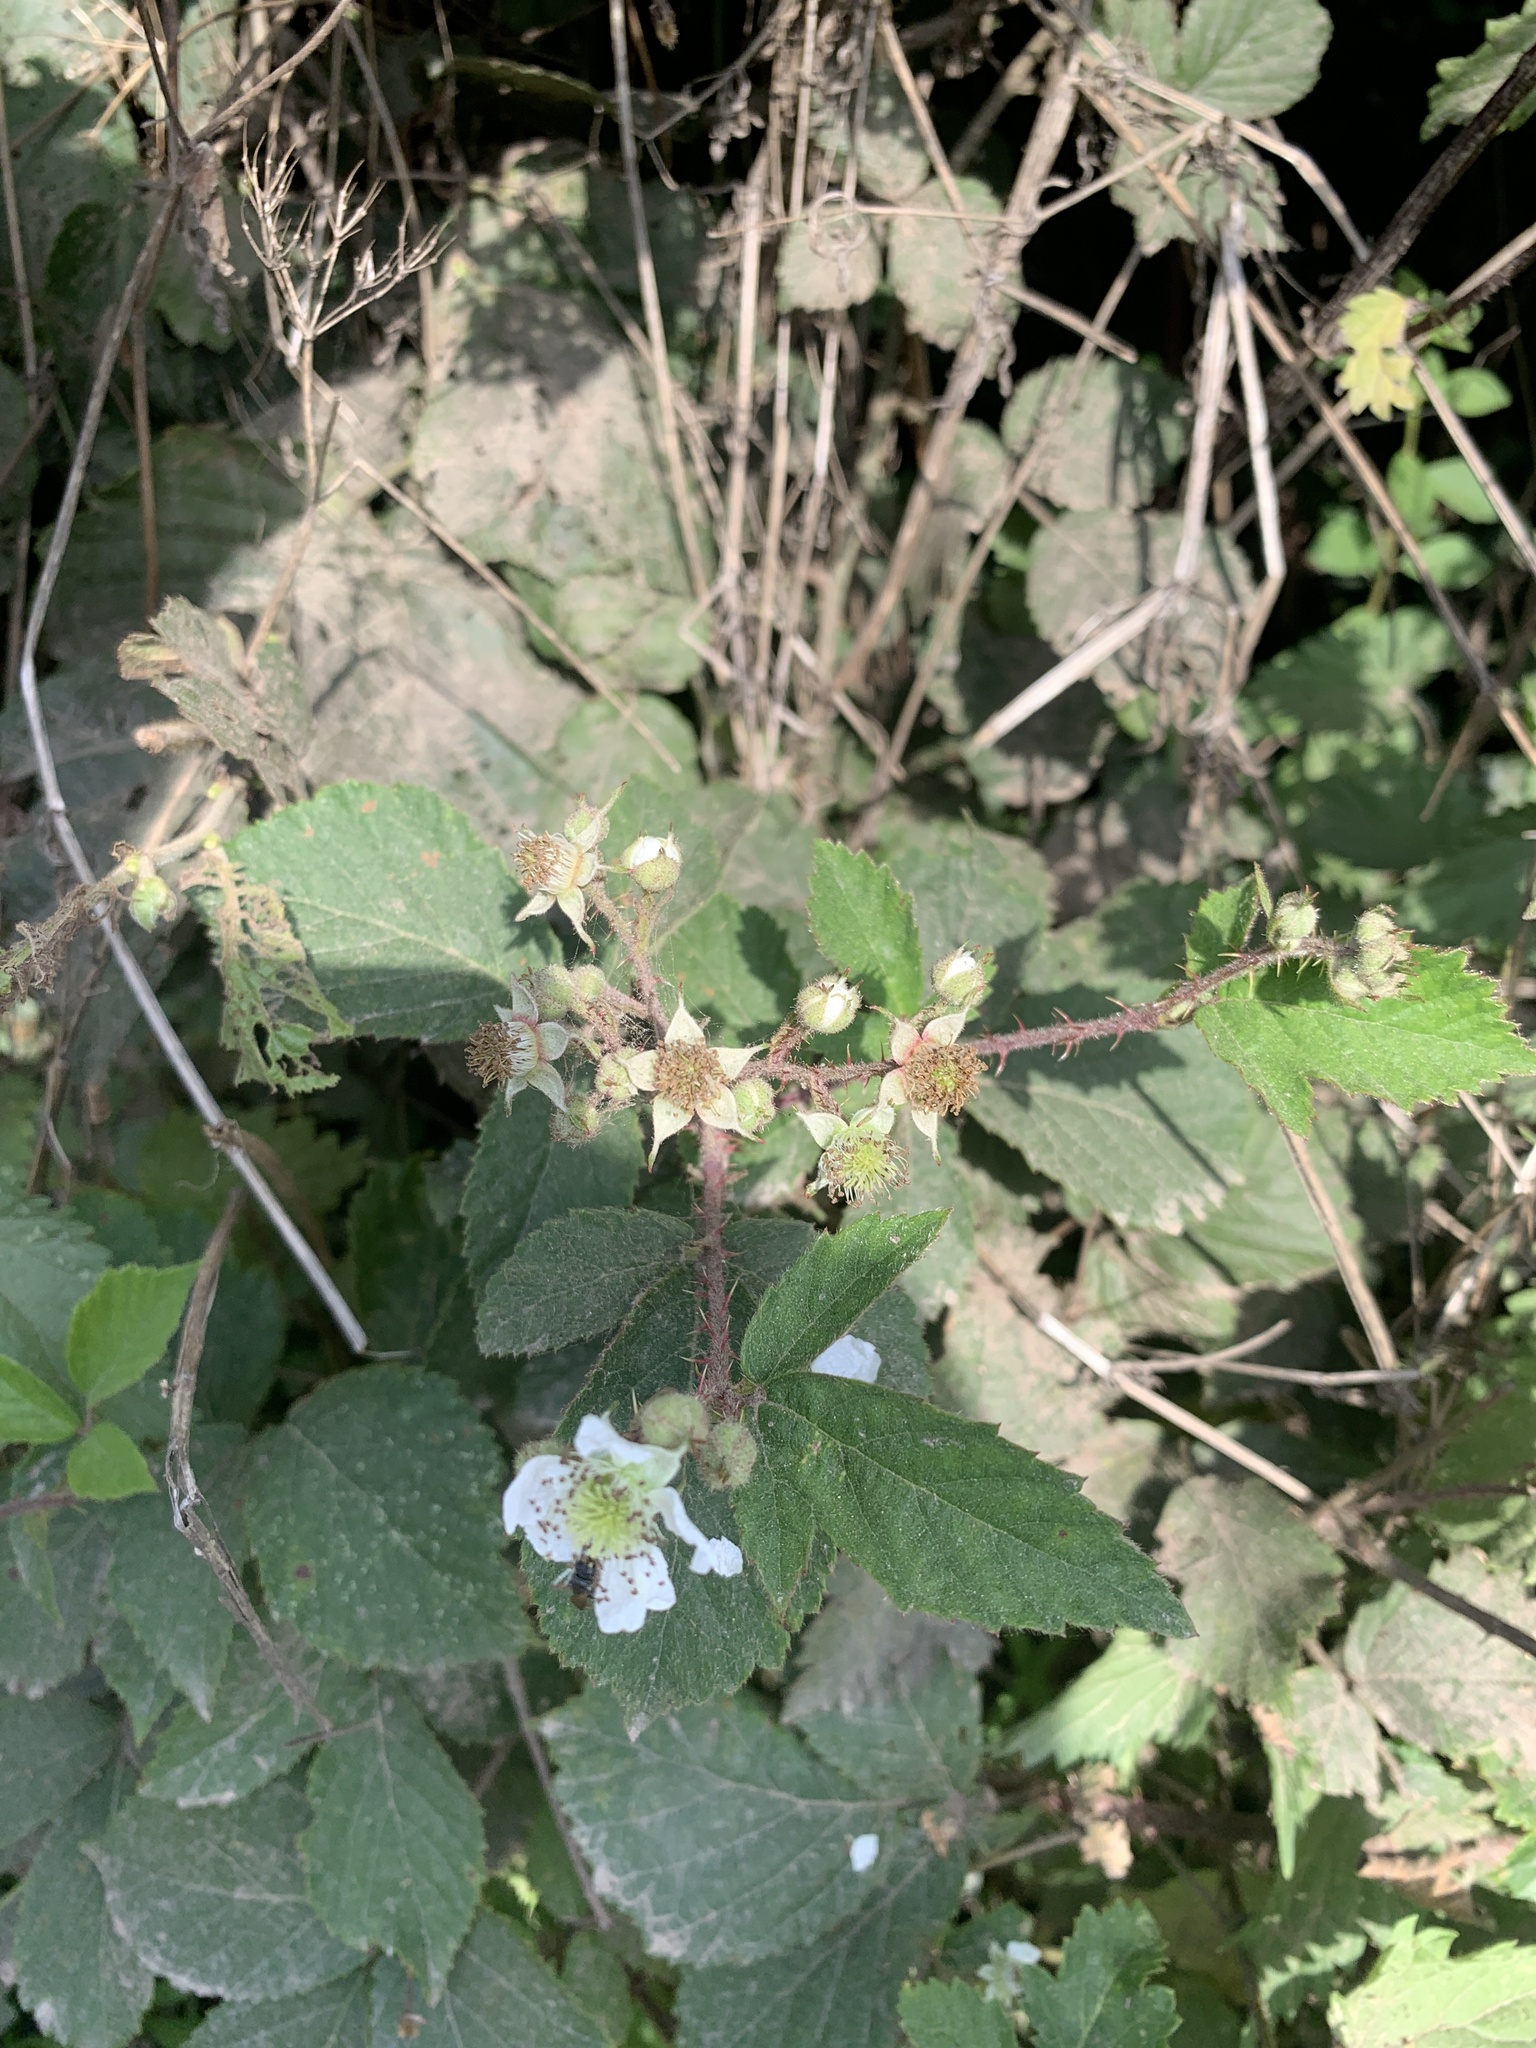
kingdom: Plantae
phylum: Tracheophyta
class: Magnoliopsida
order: Rosales
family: Rosaceae
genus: Rubus
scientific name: Rubus fruticosus
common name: Blackberry, bramble
